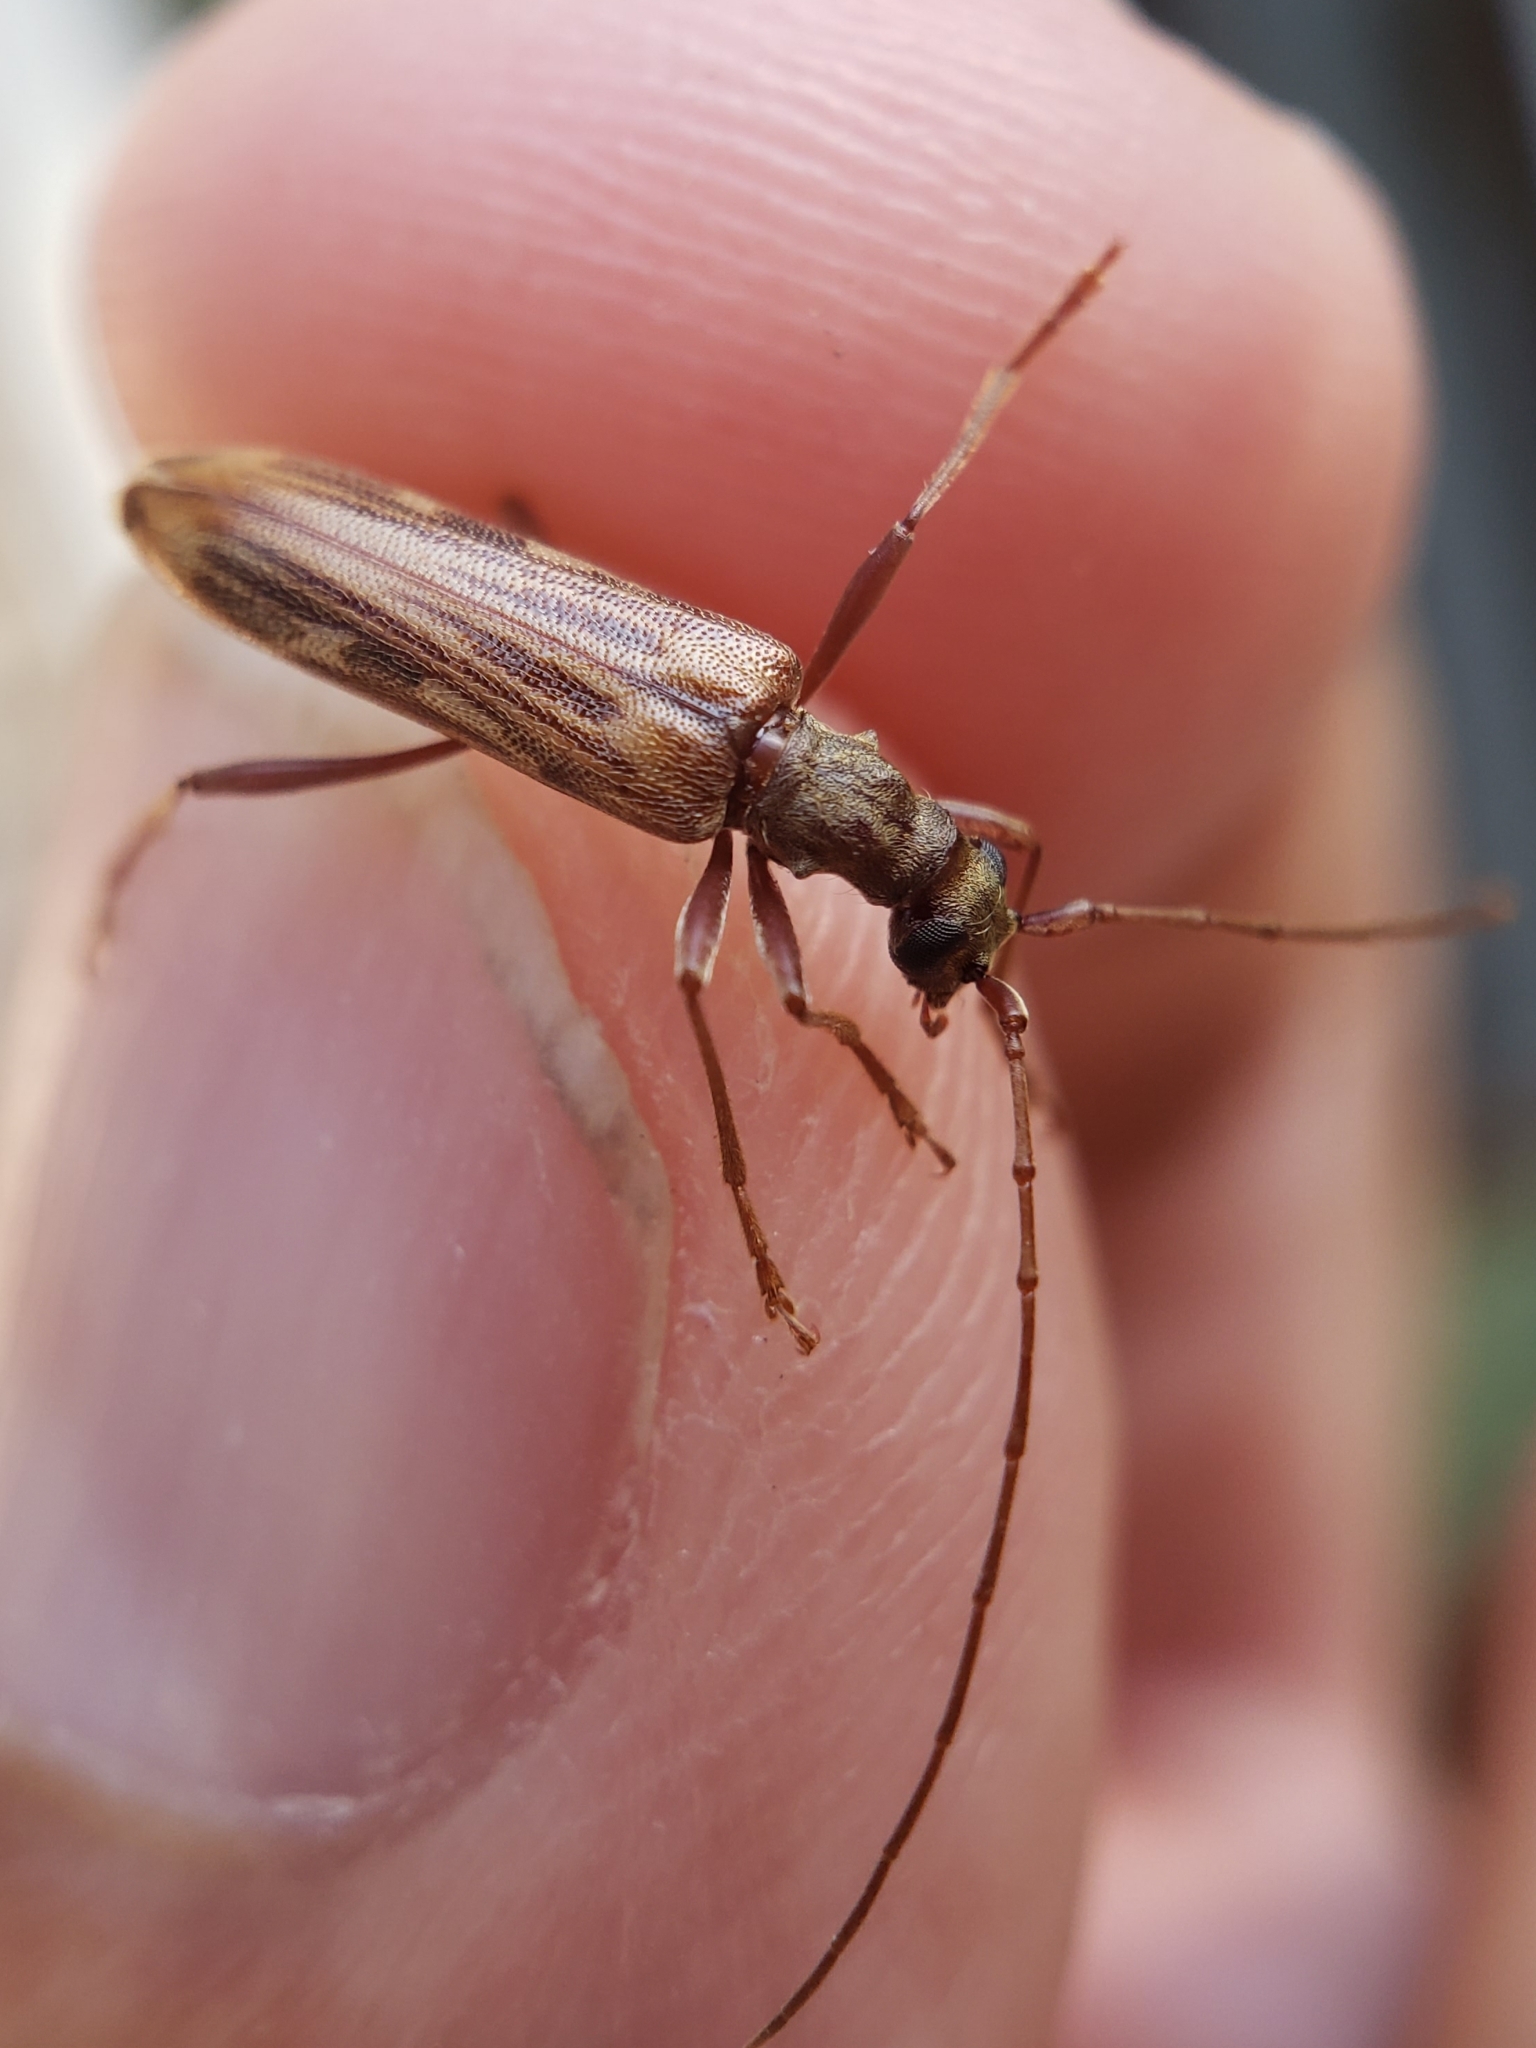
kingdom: Animalia
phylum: Arthropoda
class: Insecta
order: Coleoptera
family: Cerambycidae
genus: Leptorhabdium
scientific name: Leptorhabdium pictum
